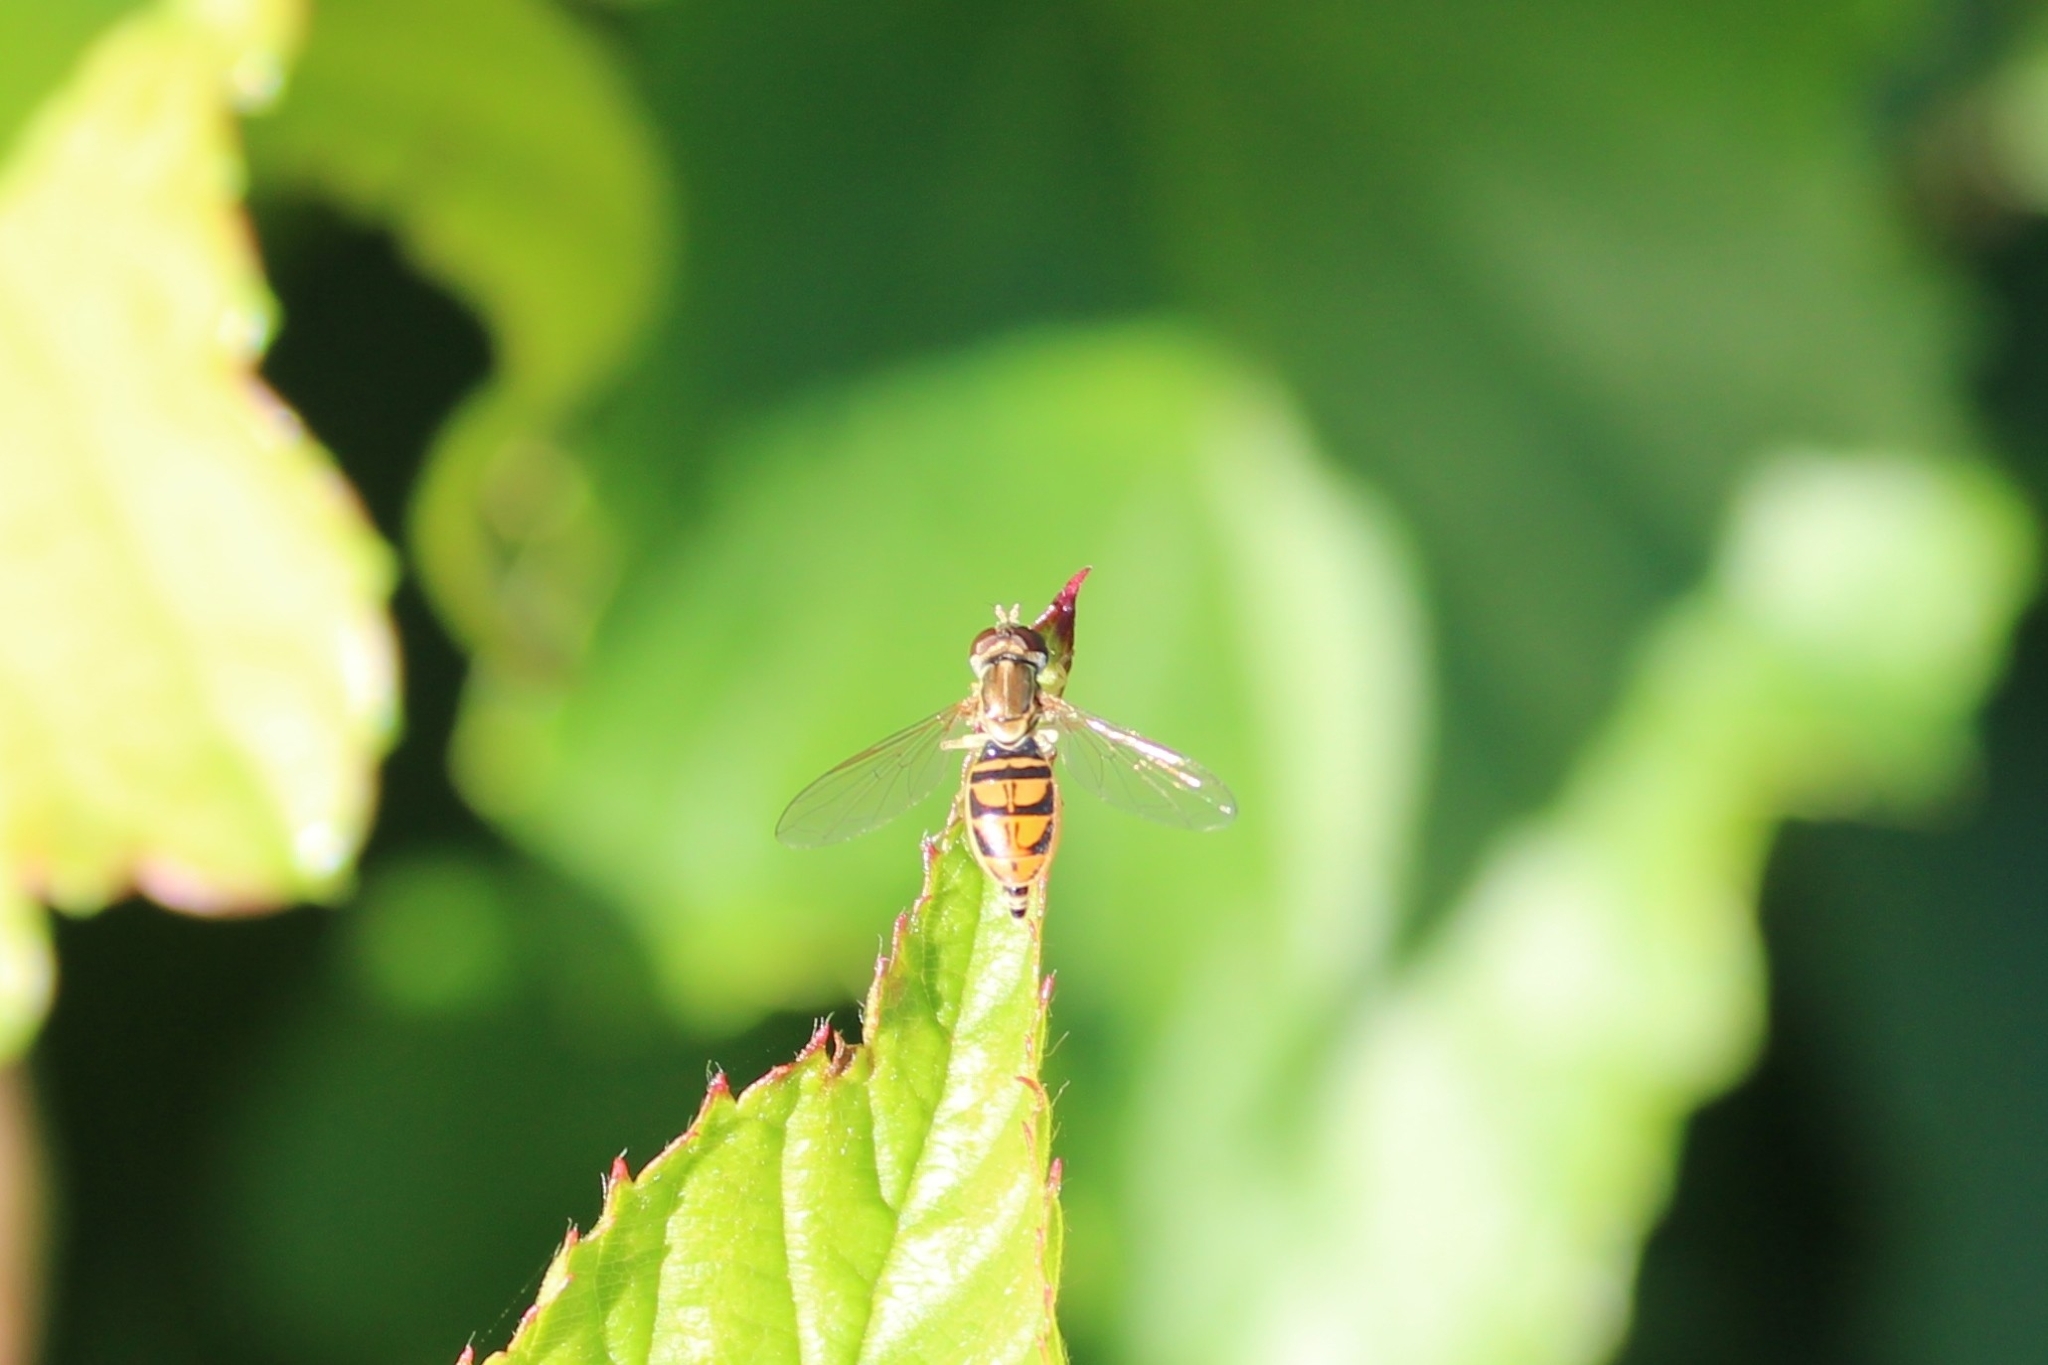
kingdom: Animalia
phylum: Arthropoda
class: Insecta
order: Diptera
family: Syrphidae
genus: Toxomerus
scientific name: Toxomerus marginatus
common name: Syrphid fly
